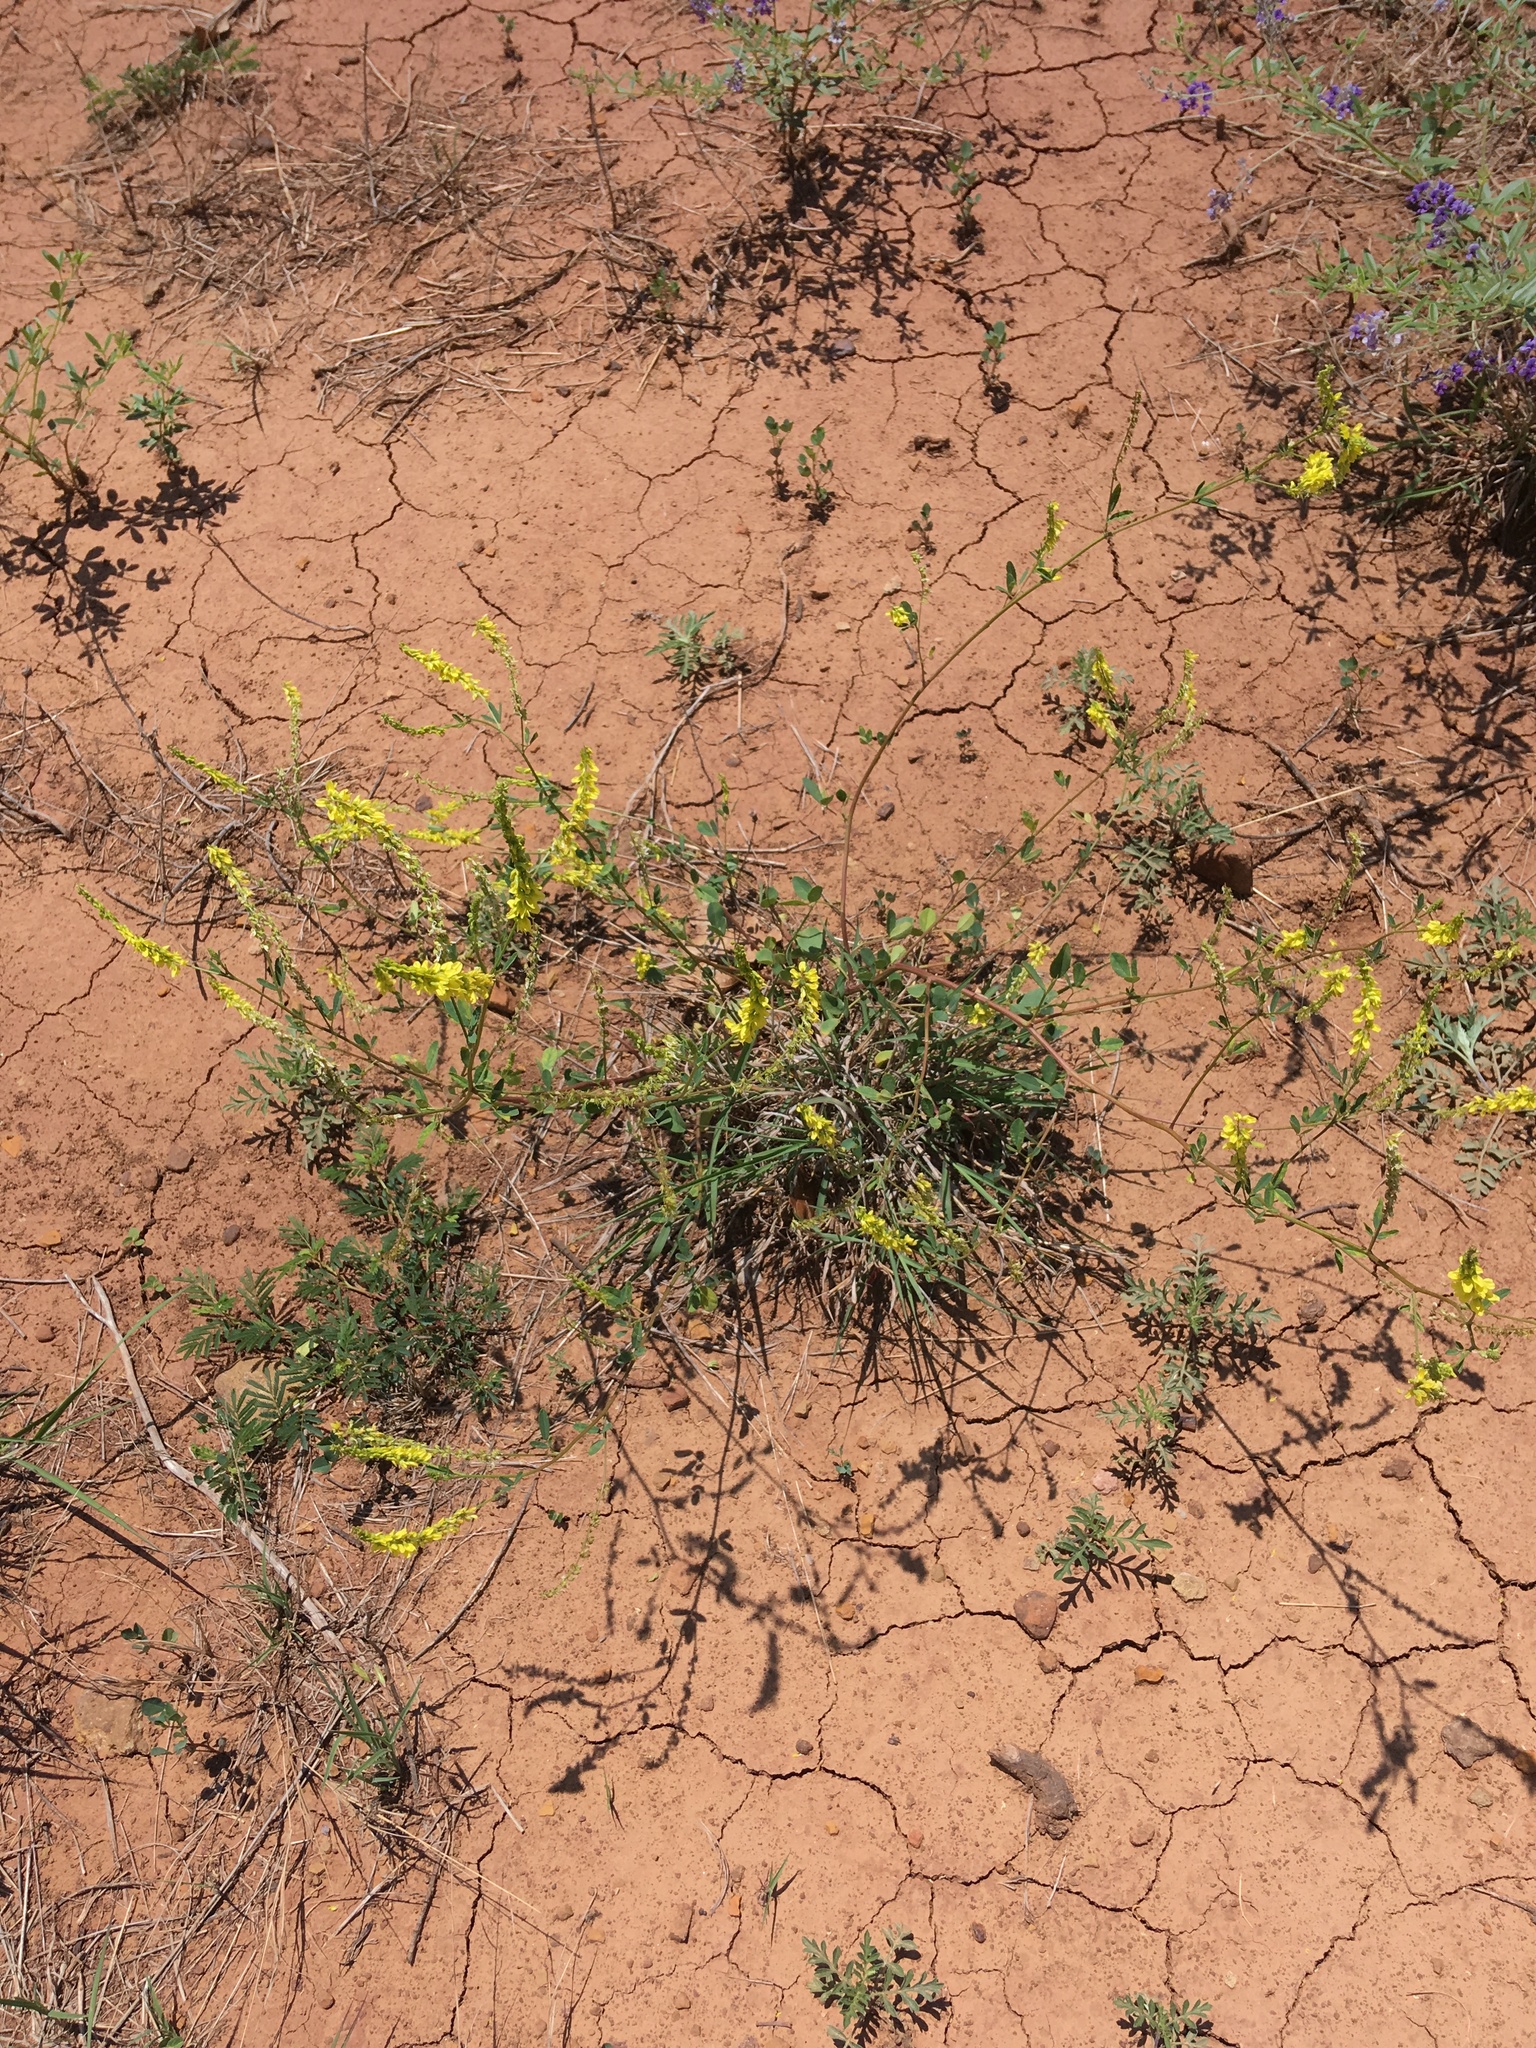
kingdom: Plantae
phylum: Tracheophyta
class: Magnoliopsida
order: Fabales
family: Fabaceae
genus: Melilotus
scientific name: Melilotus officinalis
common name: Sweetclover
